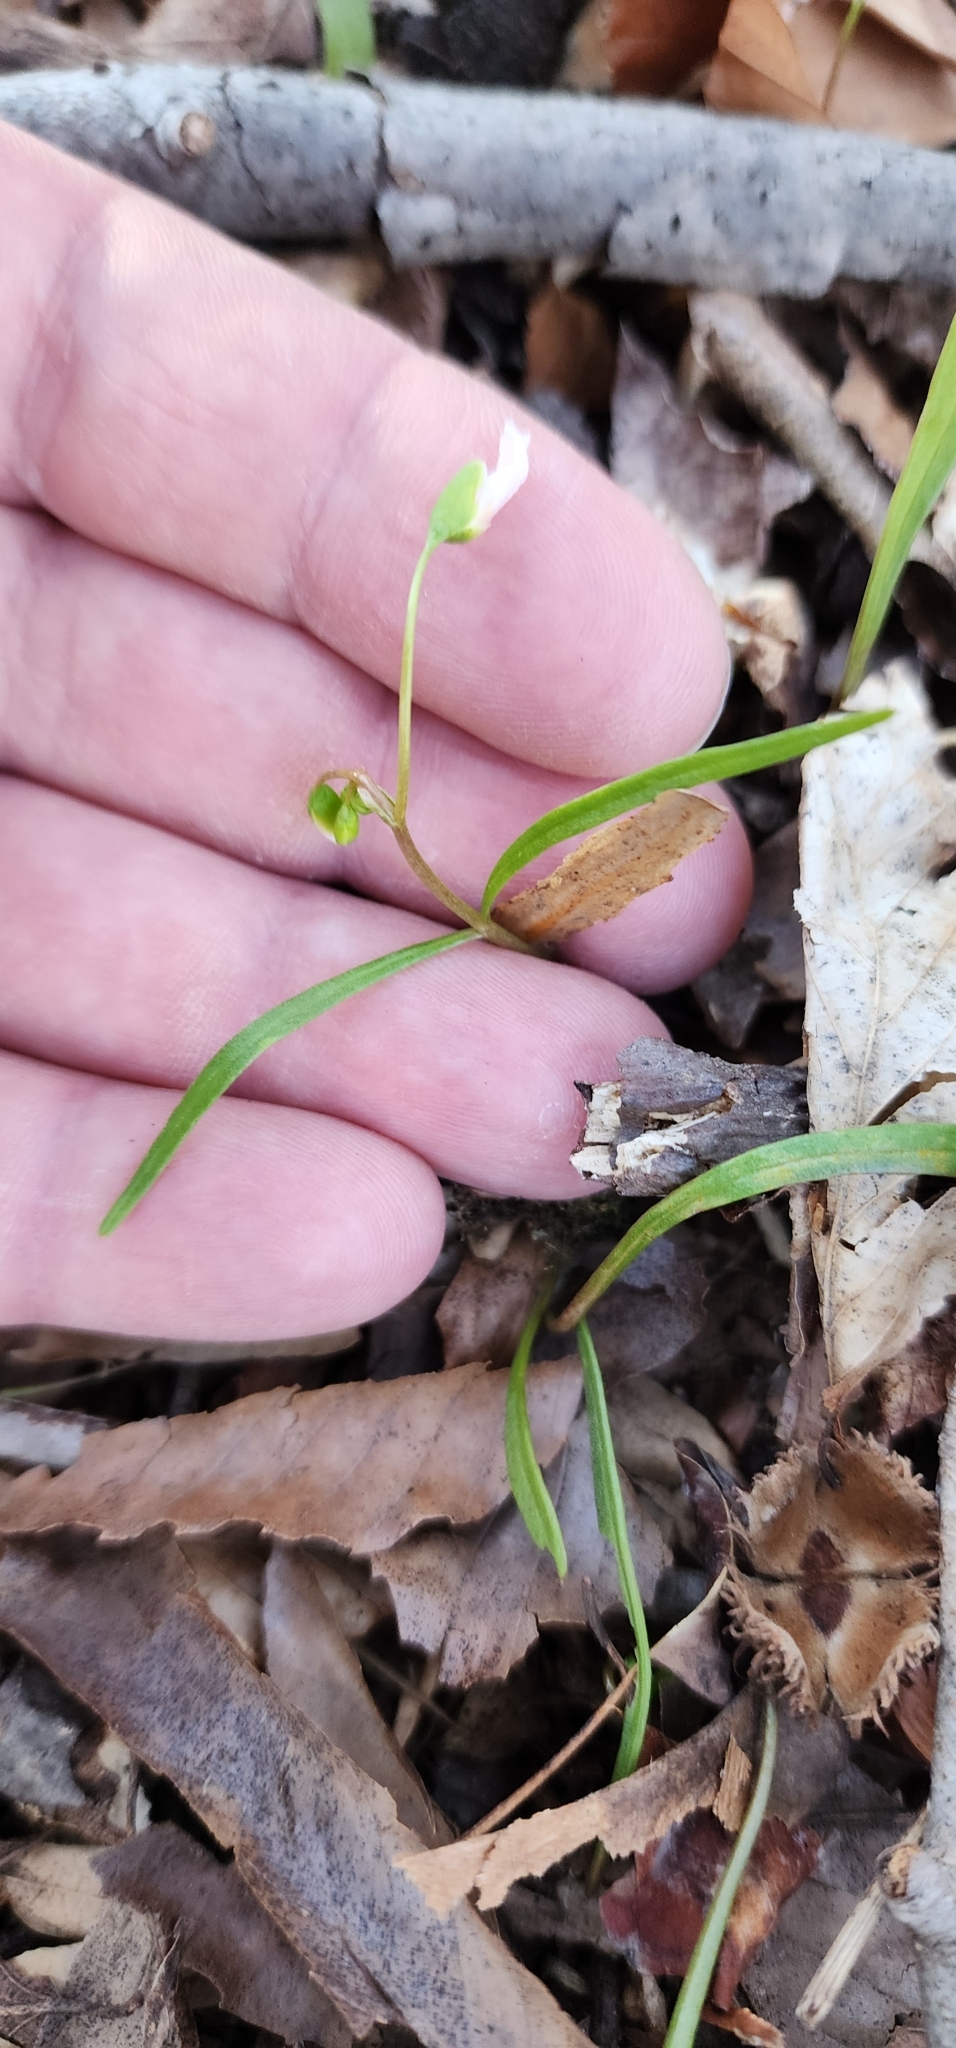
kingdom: Plantae
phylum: Tracheophyta
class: Magnoliopsida
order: Caryophyllales
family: Montiaceae
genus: Claytonia
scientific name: Claytonia virginica
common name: Virginia springbeauty
